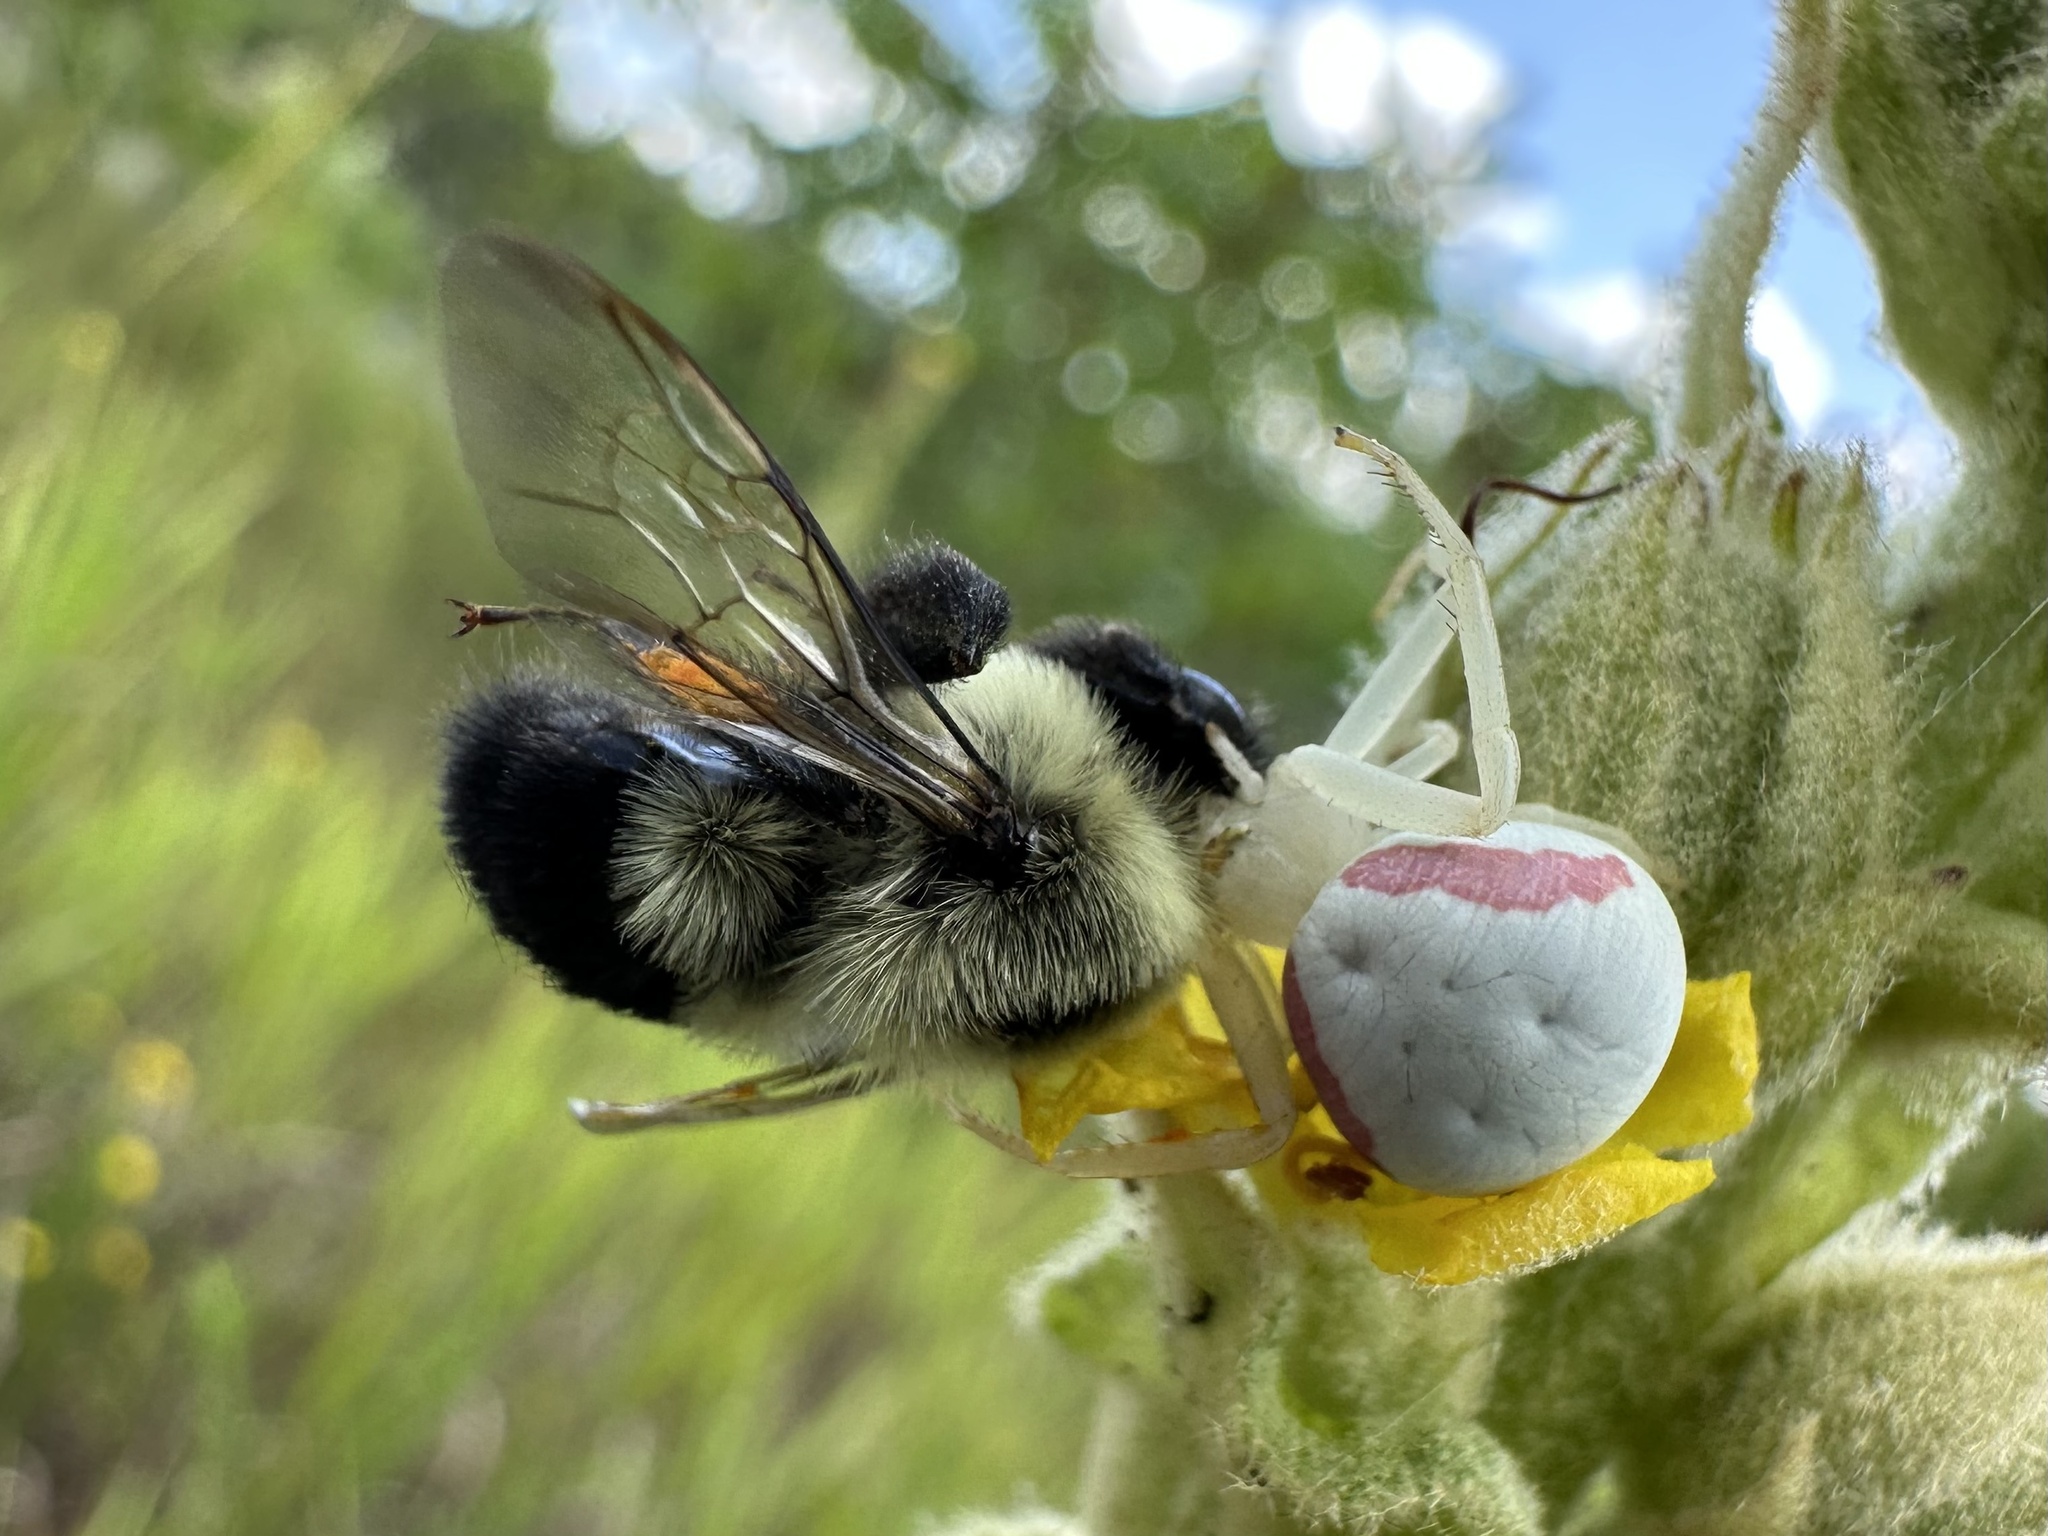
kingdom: Animalia
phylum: Arthropoda
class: Arachnida
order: Araneae
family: Thomisidae
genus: Misumena
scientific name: Misumena vatia
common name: Goldenrod crab spider
